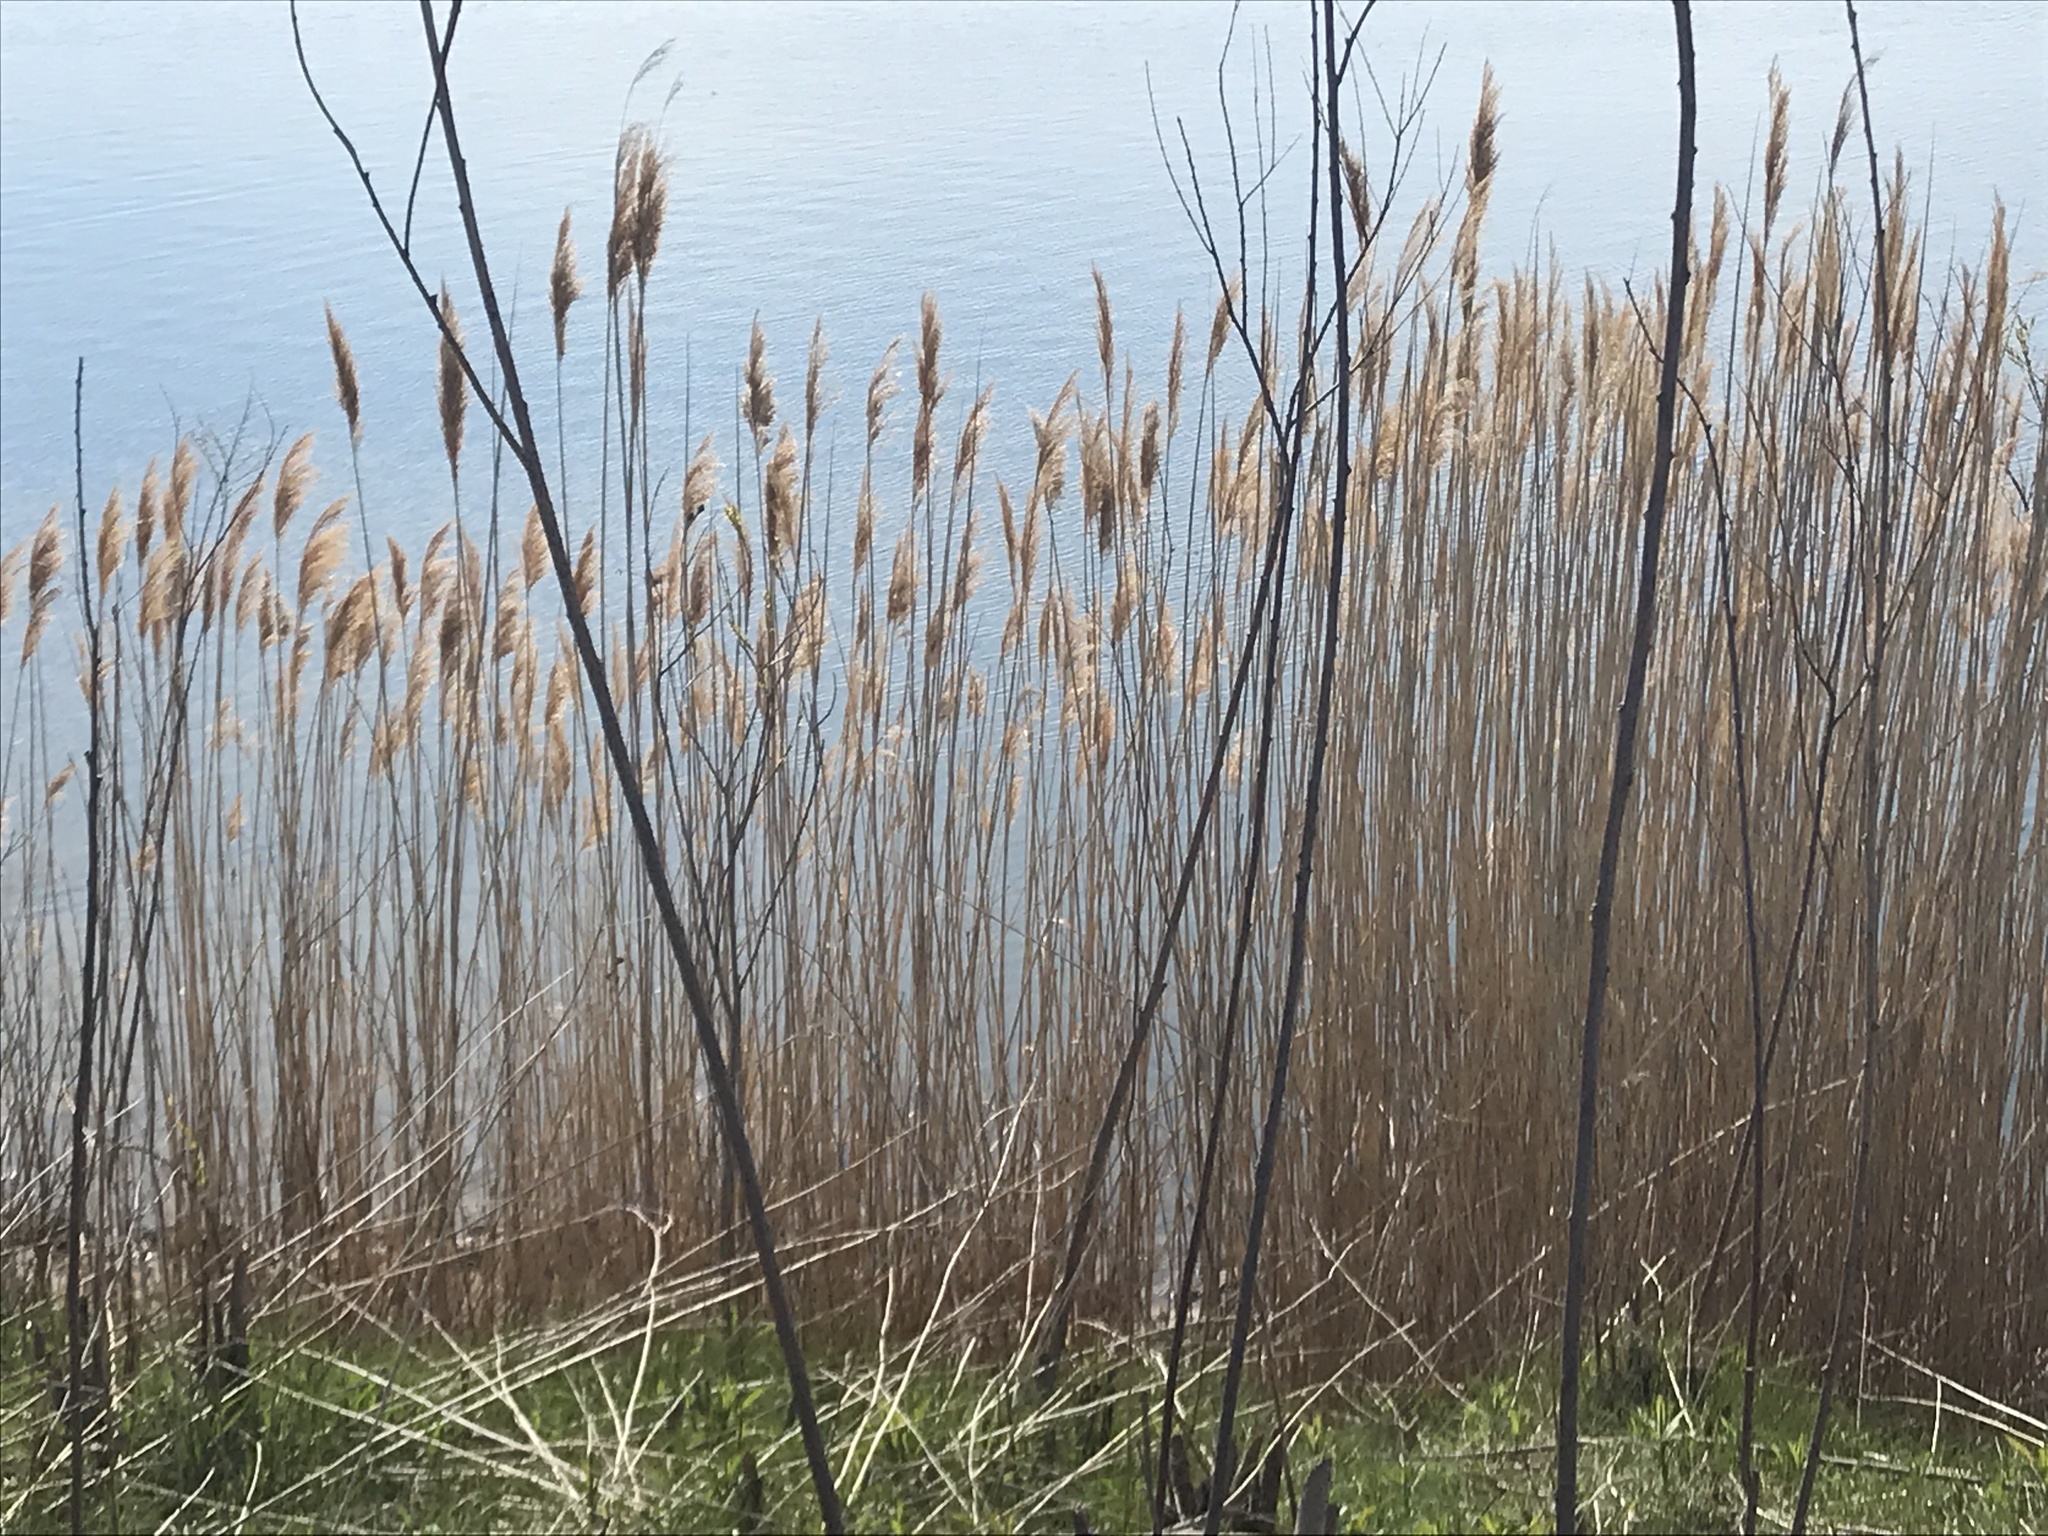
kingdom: Plantae
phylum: Tracheophyta
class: Liliopsida
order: Poales
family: Poaceae
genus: Phragmites
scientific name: Phragmites australis
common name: Common reed
